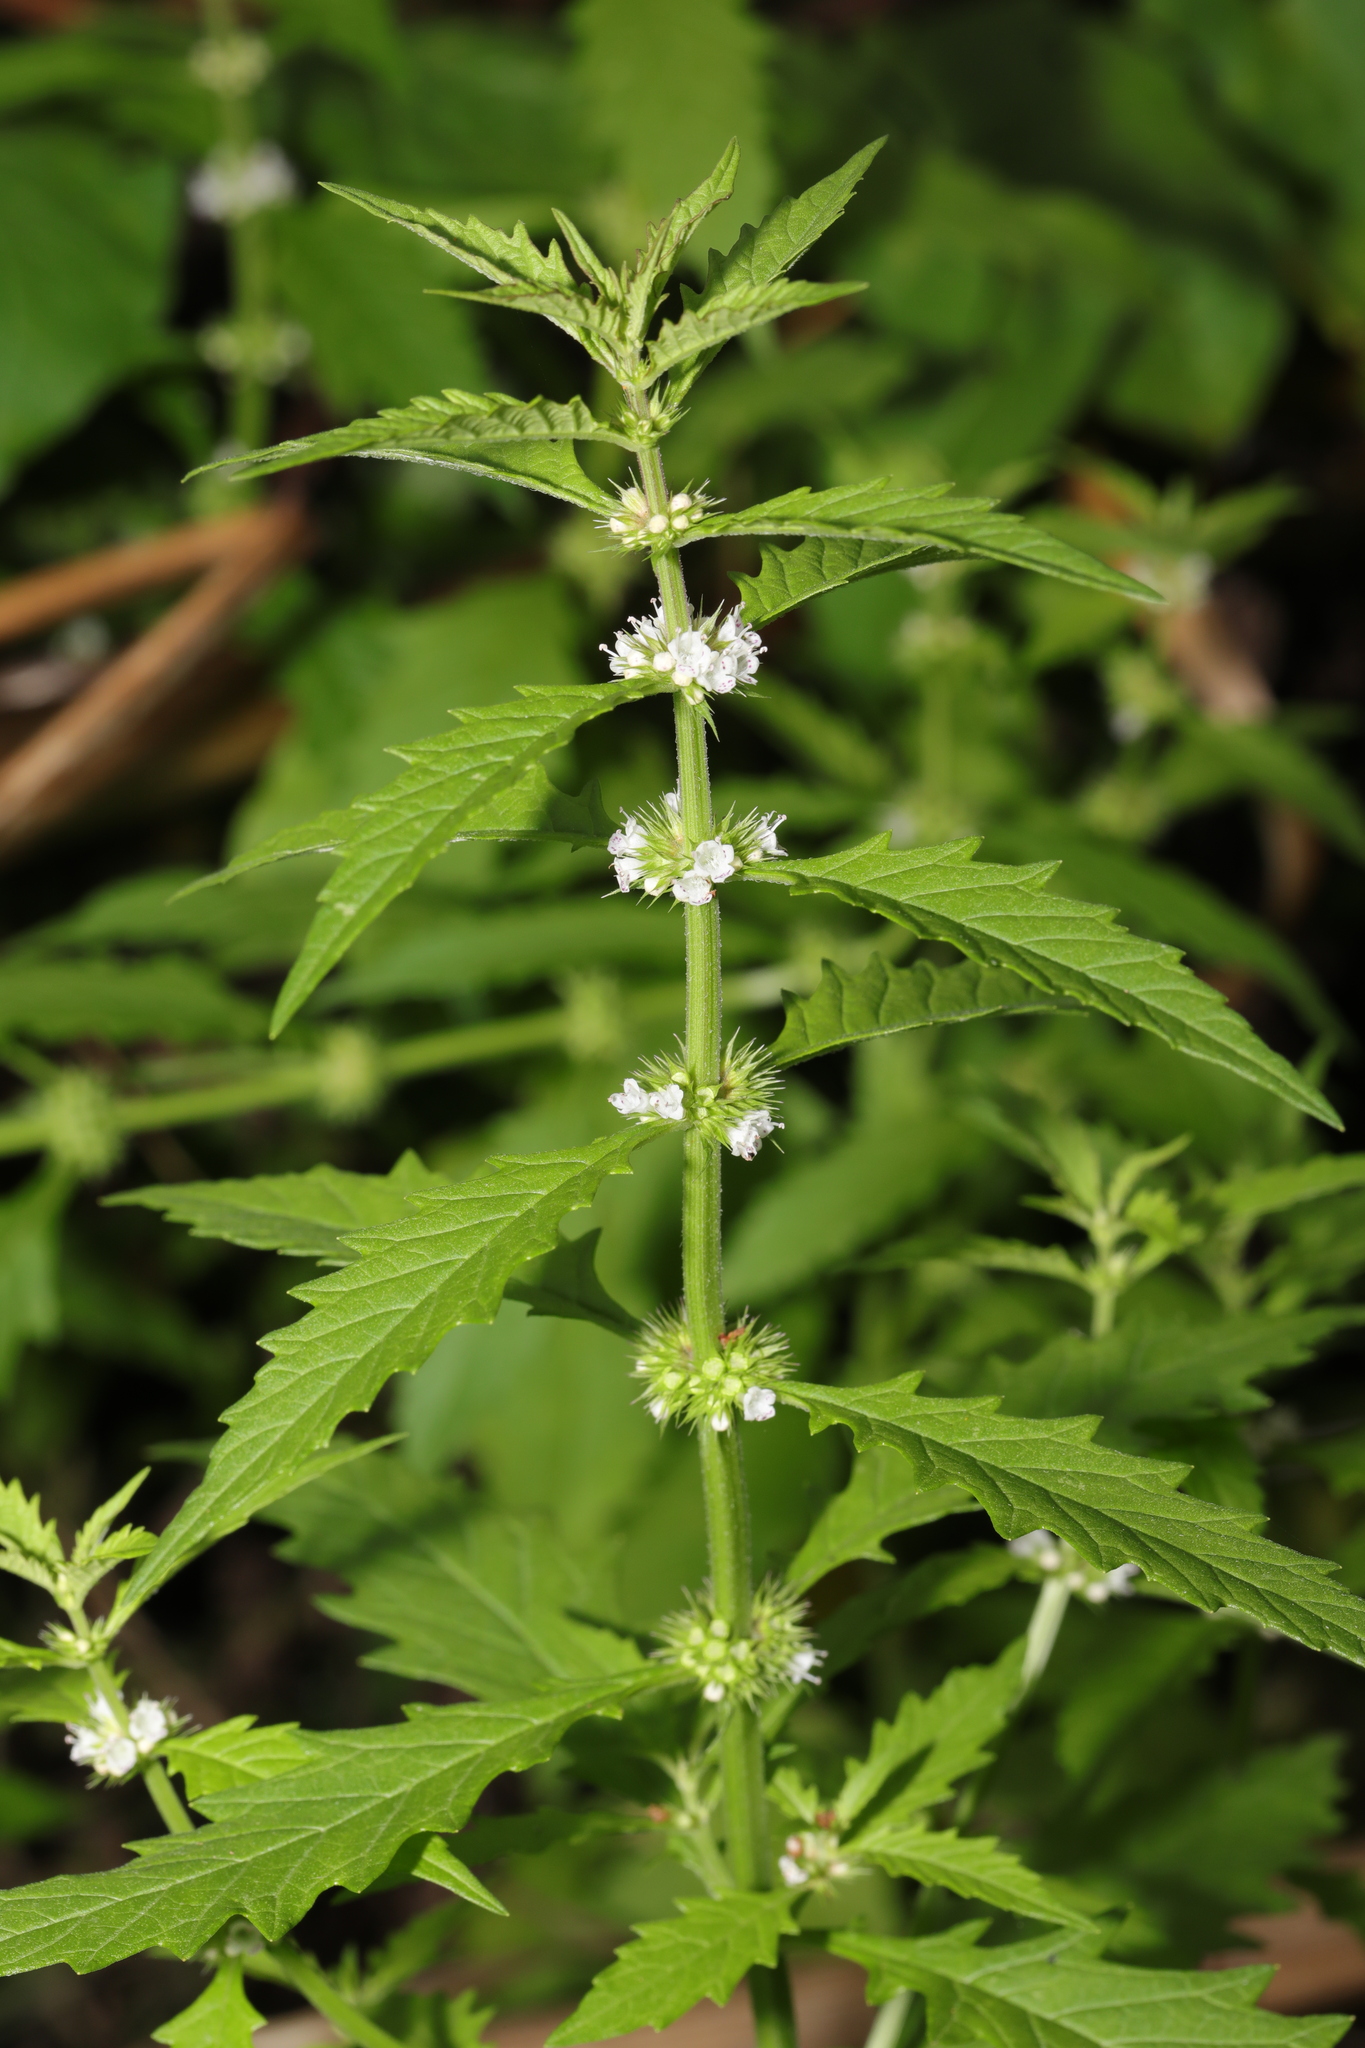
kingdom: Plantae
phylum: Tracheophyta
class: Magnoliopsida
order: Lamiales
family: Lamiaceae
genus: Lycopus
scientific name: Lycopus europaeus
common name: European bugleweed
